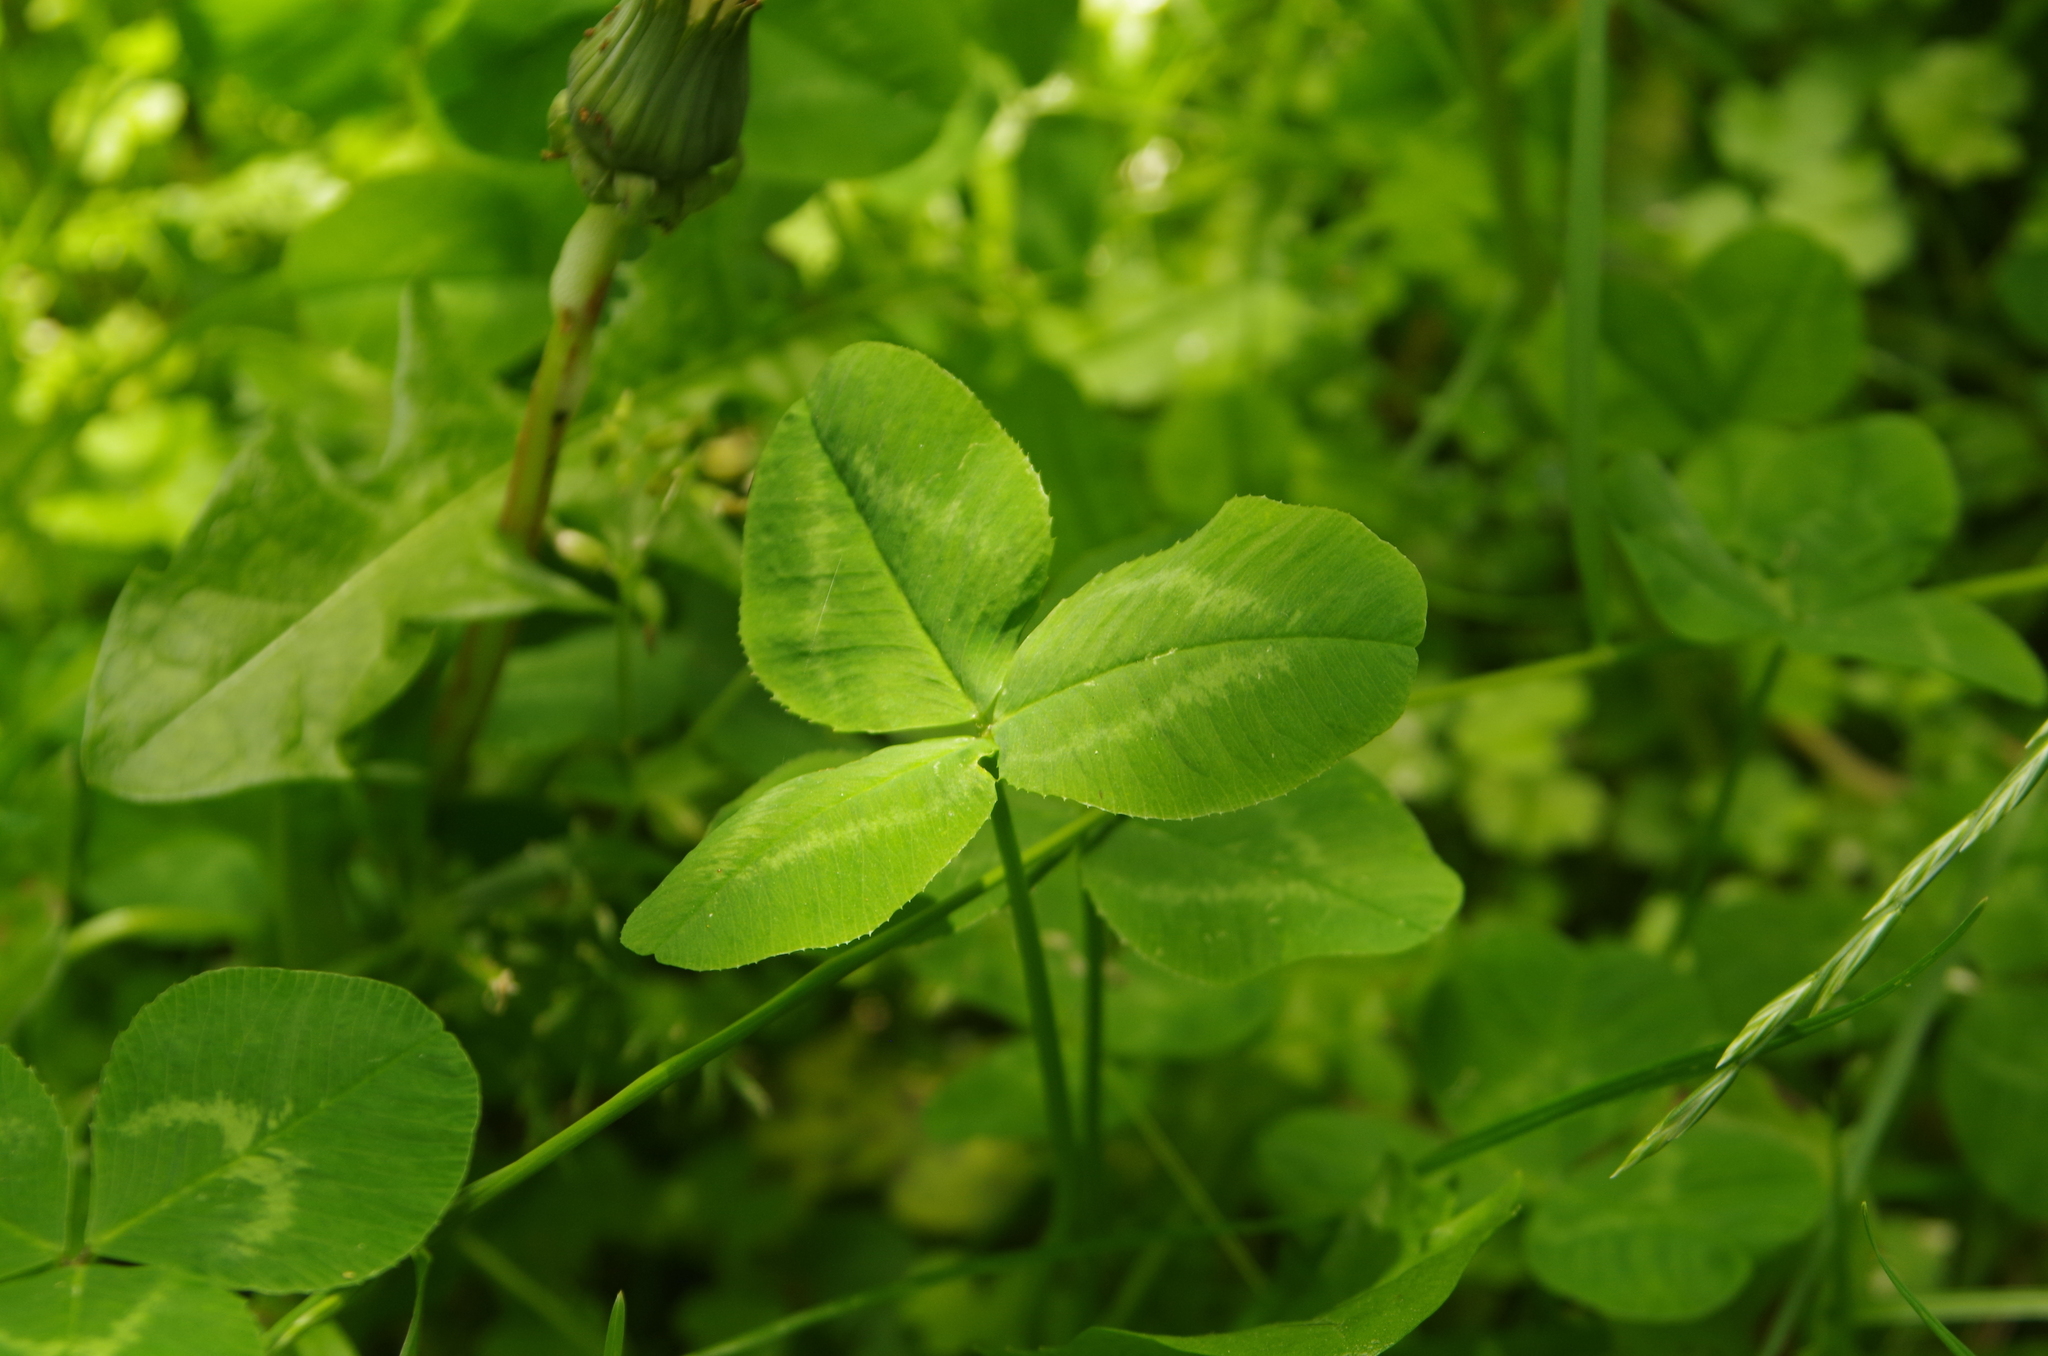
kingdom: Plantae
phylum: Tracheophyta
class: Magnoliopsida
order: Fabales
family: Fabaceae
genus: Trifolium
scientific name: Trifolium repens
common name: White clover
